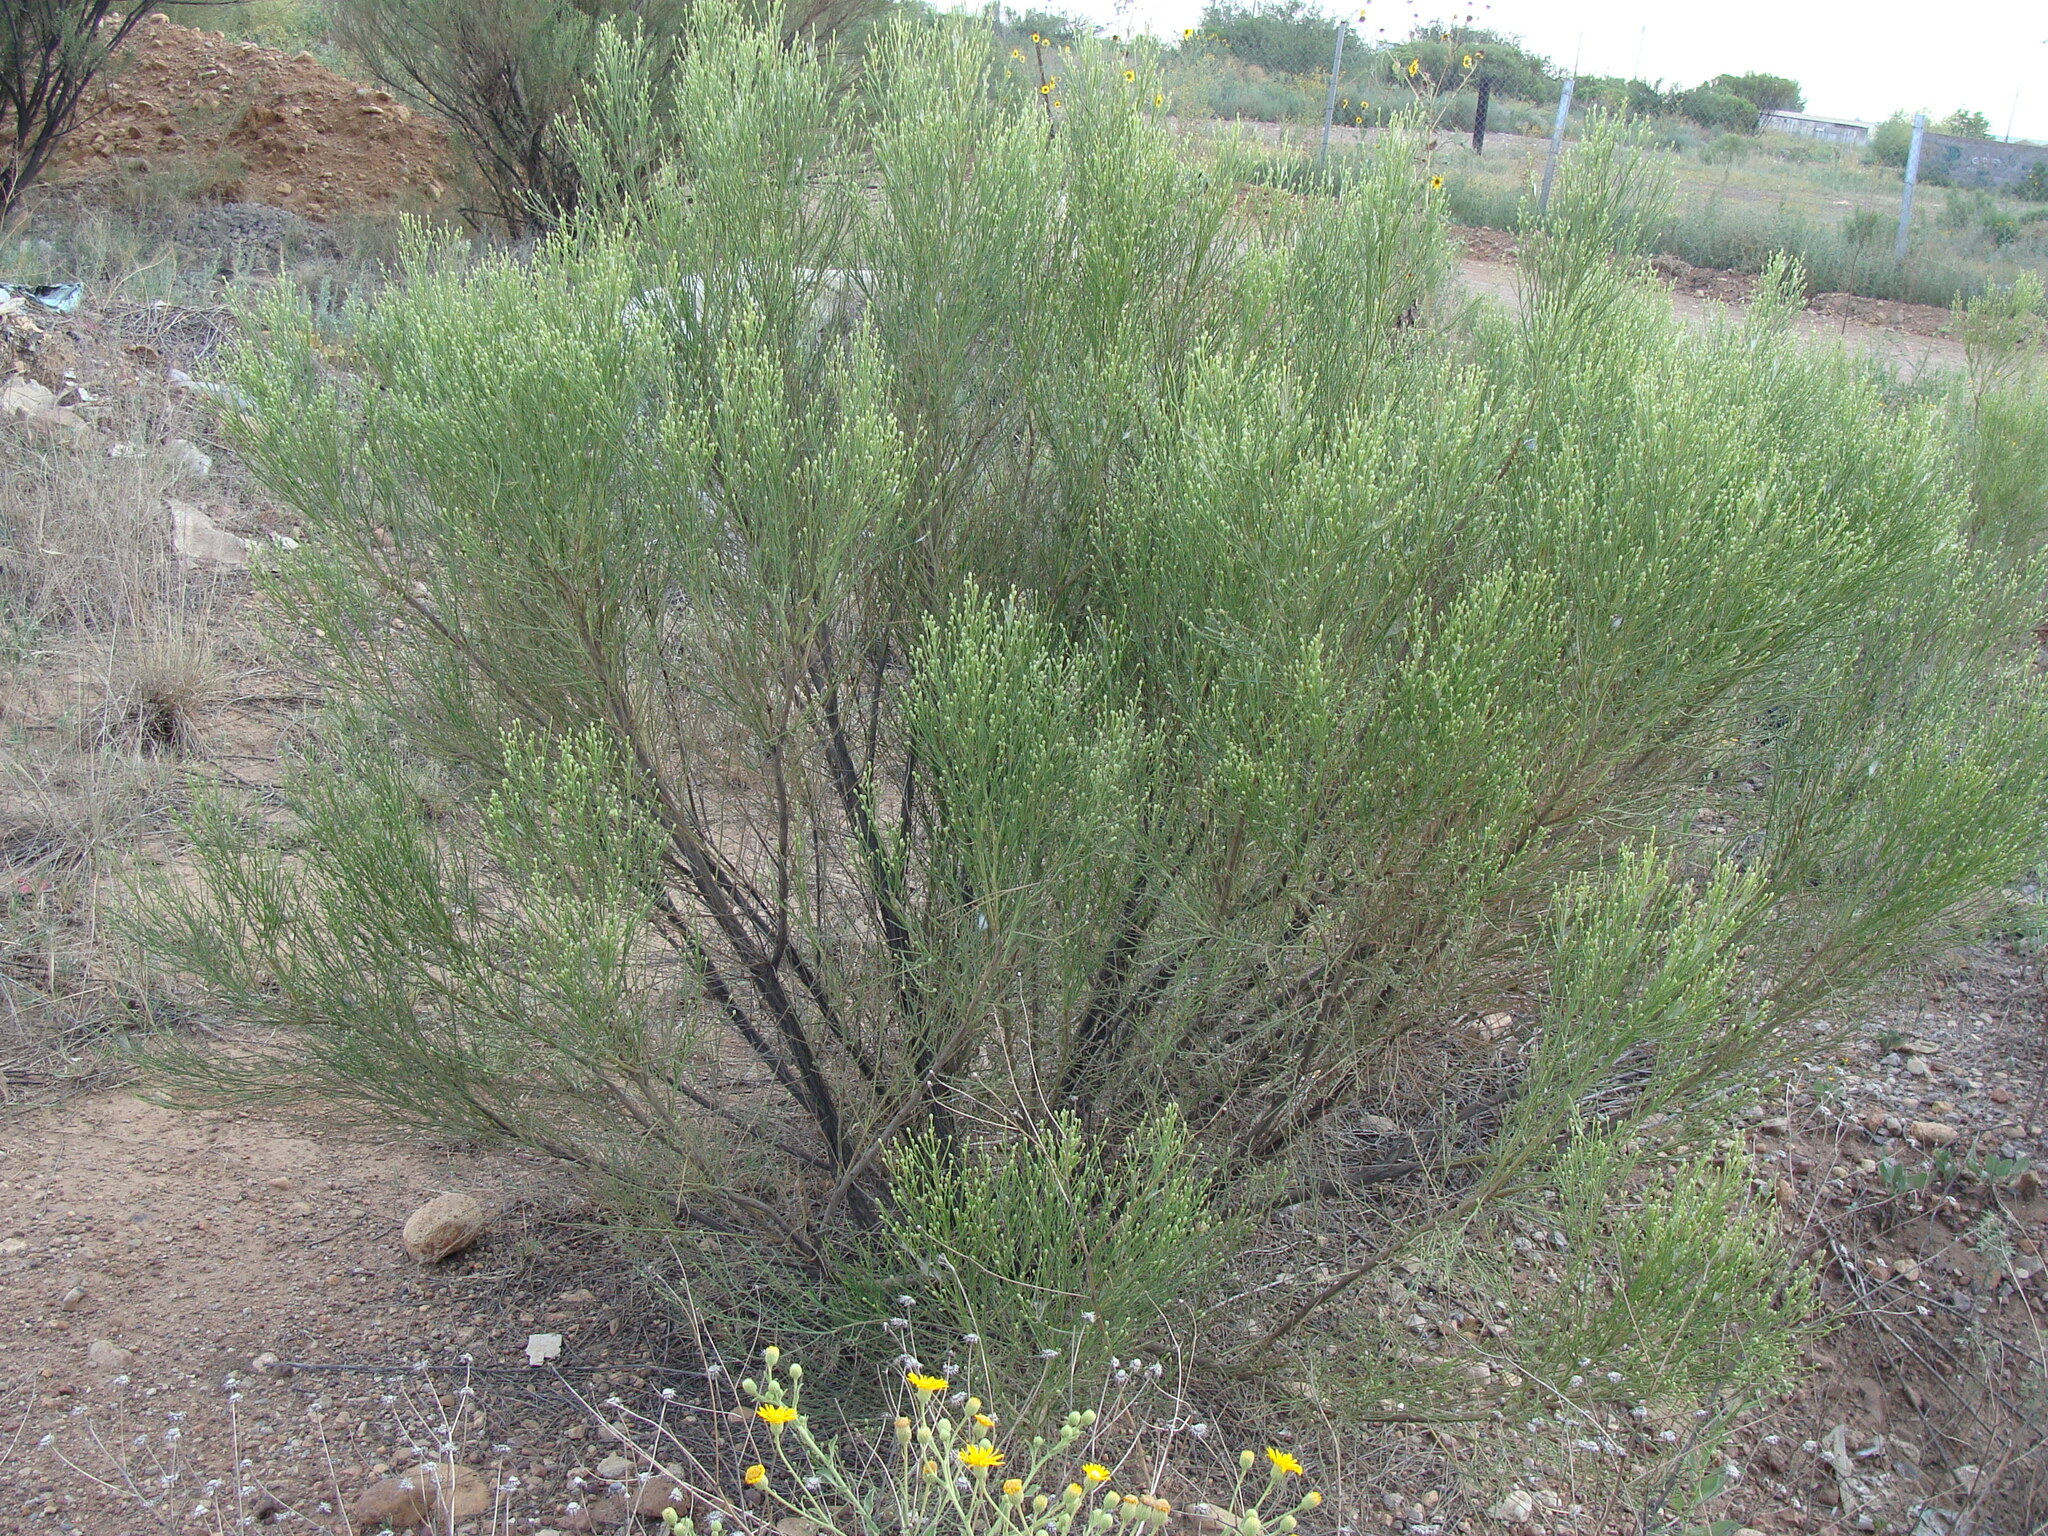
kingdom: Plantae
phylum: Tracheophyta
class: Magnoliopsida
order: Asterales
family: Asteraceae
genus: Baccharis
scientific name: Baccharis sarothroides
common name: Desert-broom
